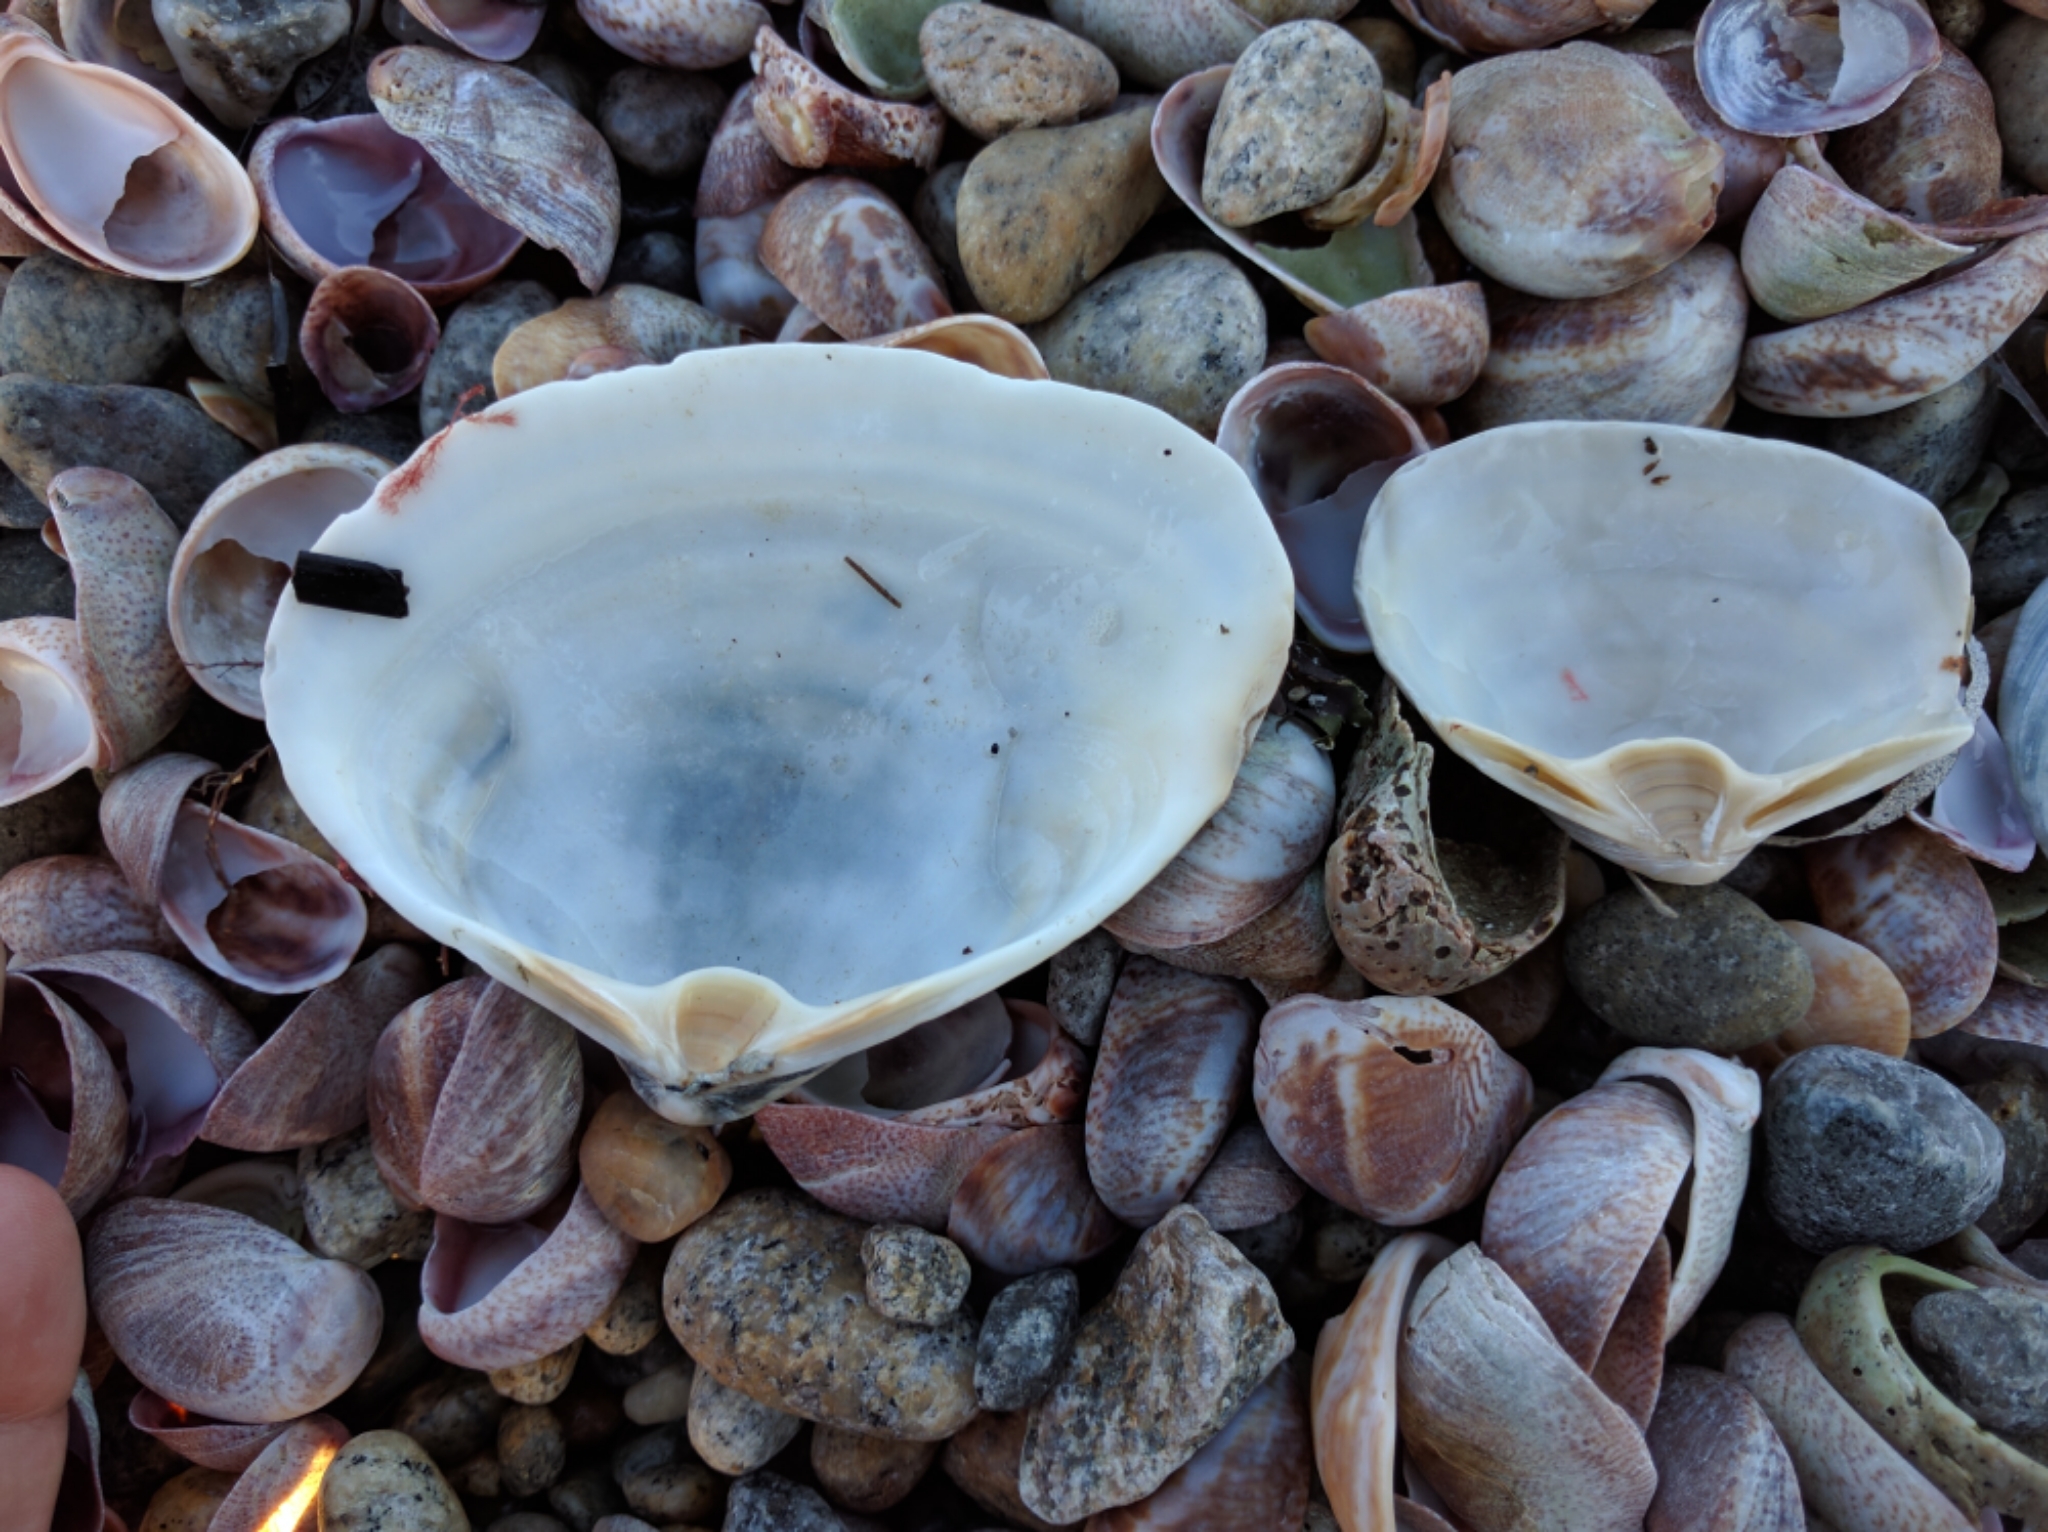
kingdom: Animalia
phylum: Mollusca
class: Bivalvia
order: Venerida
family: Mactridae
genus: Spisula
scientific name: Spisula solidissima
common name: Atlantic surf clam
